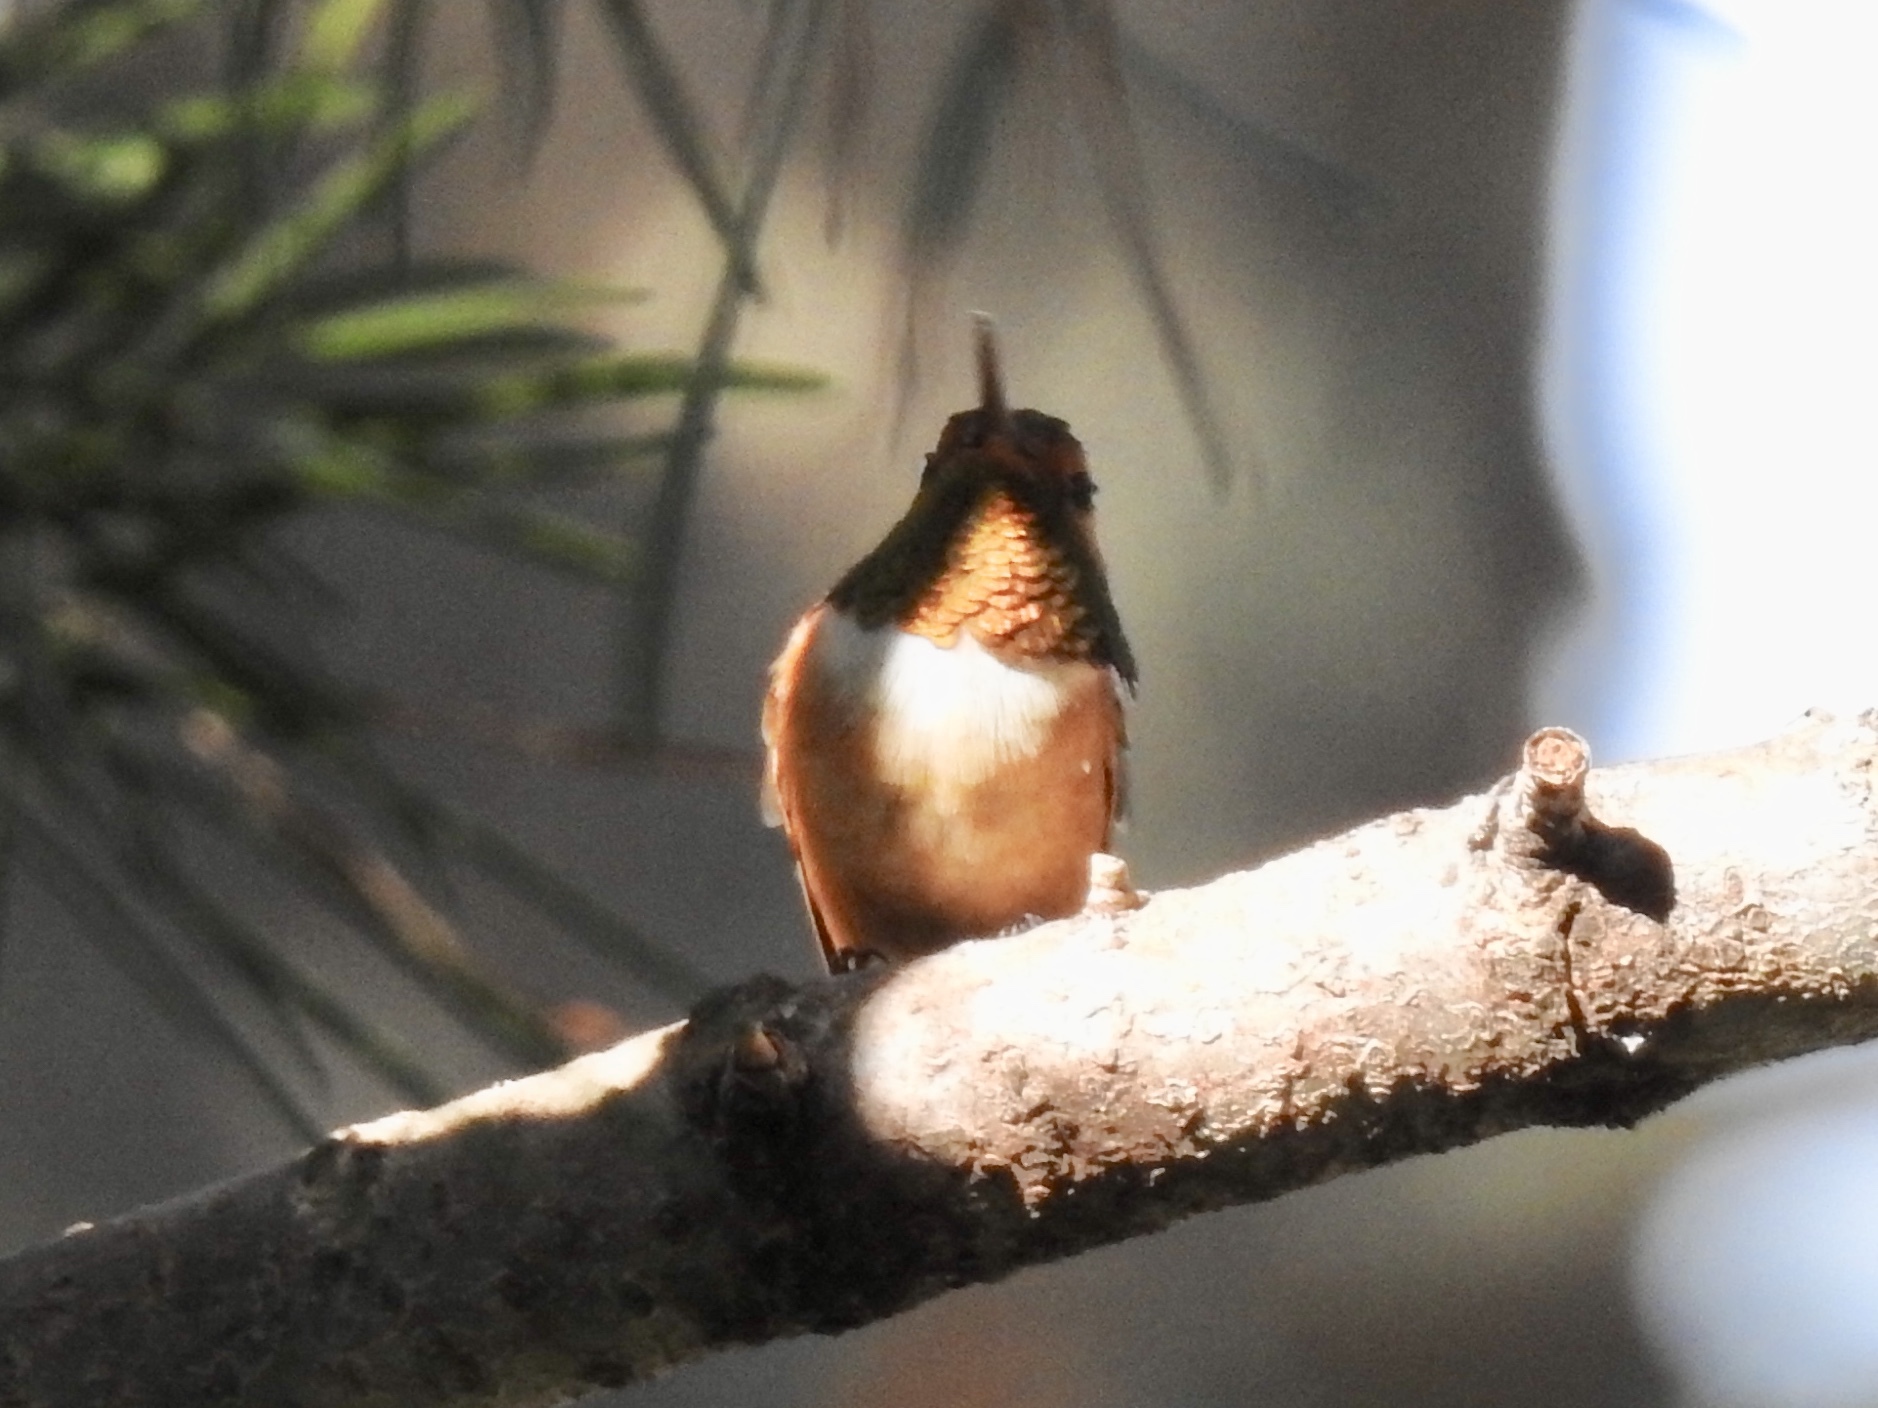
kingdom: Animalia
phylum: Chordata
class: Aves
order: Apodiformes
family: Trochilidae
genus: Selasphorus
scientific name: Selasphorus rufus
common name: Rufous hummingbird
